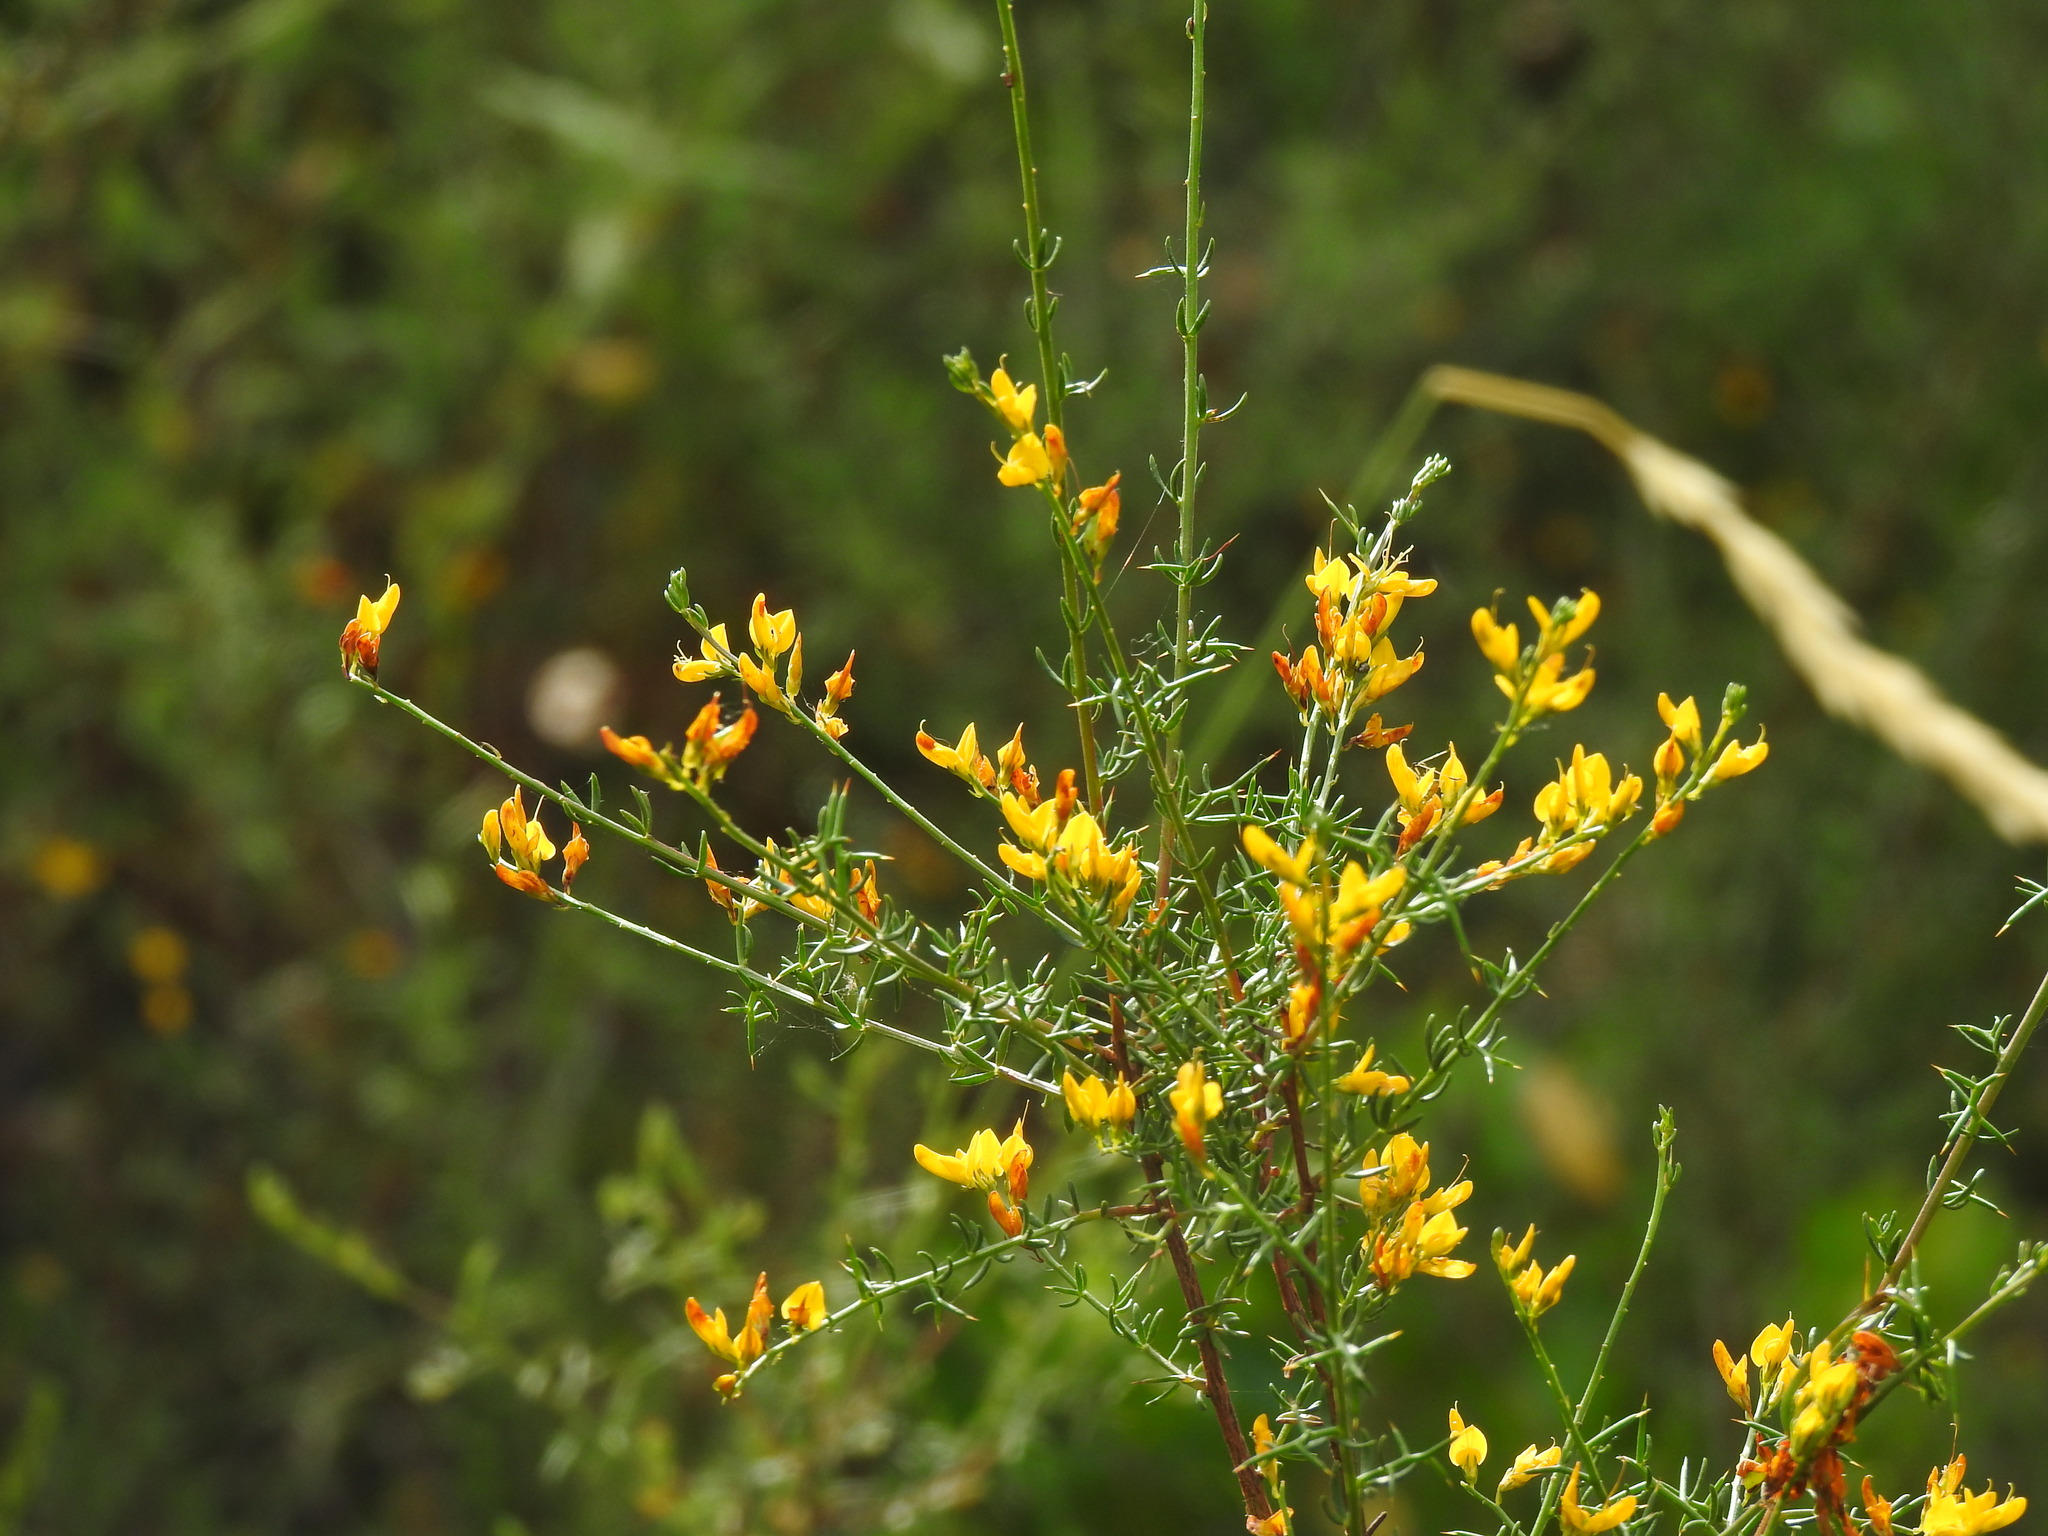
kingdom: Plantae
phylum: Tracheophyta
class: Magnoliopsida
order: Fabales
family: Fabaceae
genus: Genista
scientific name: Genista triacanthos
